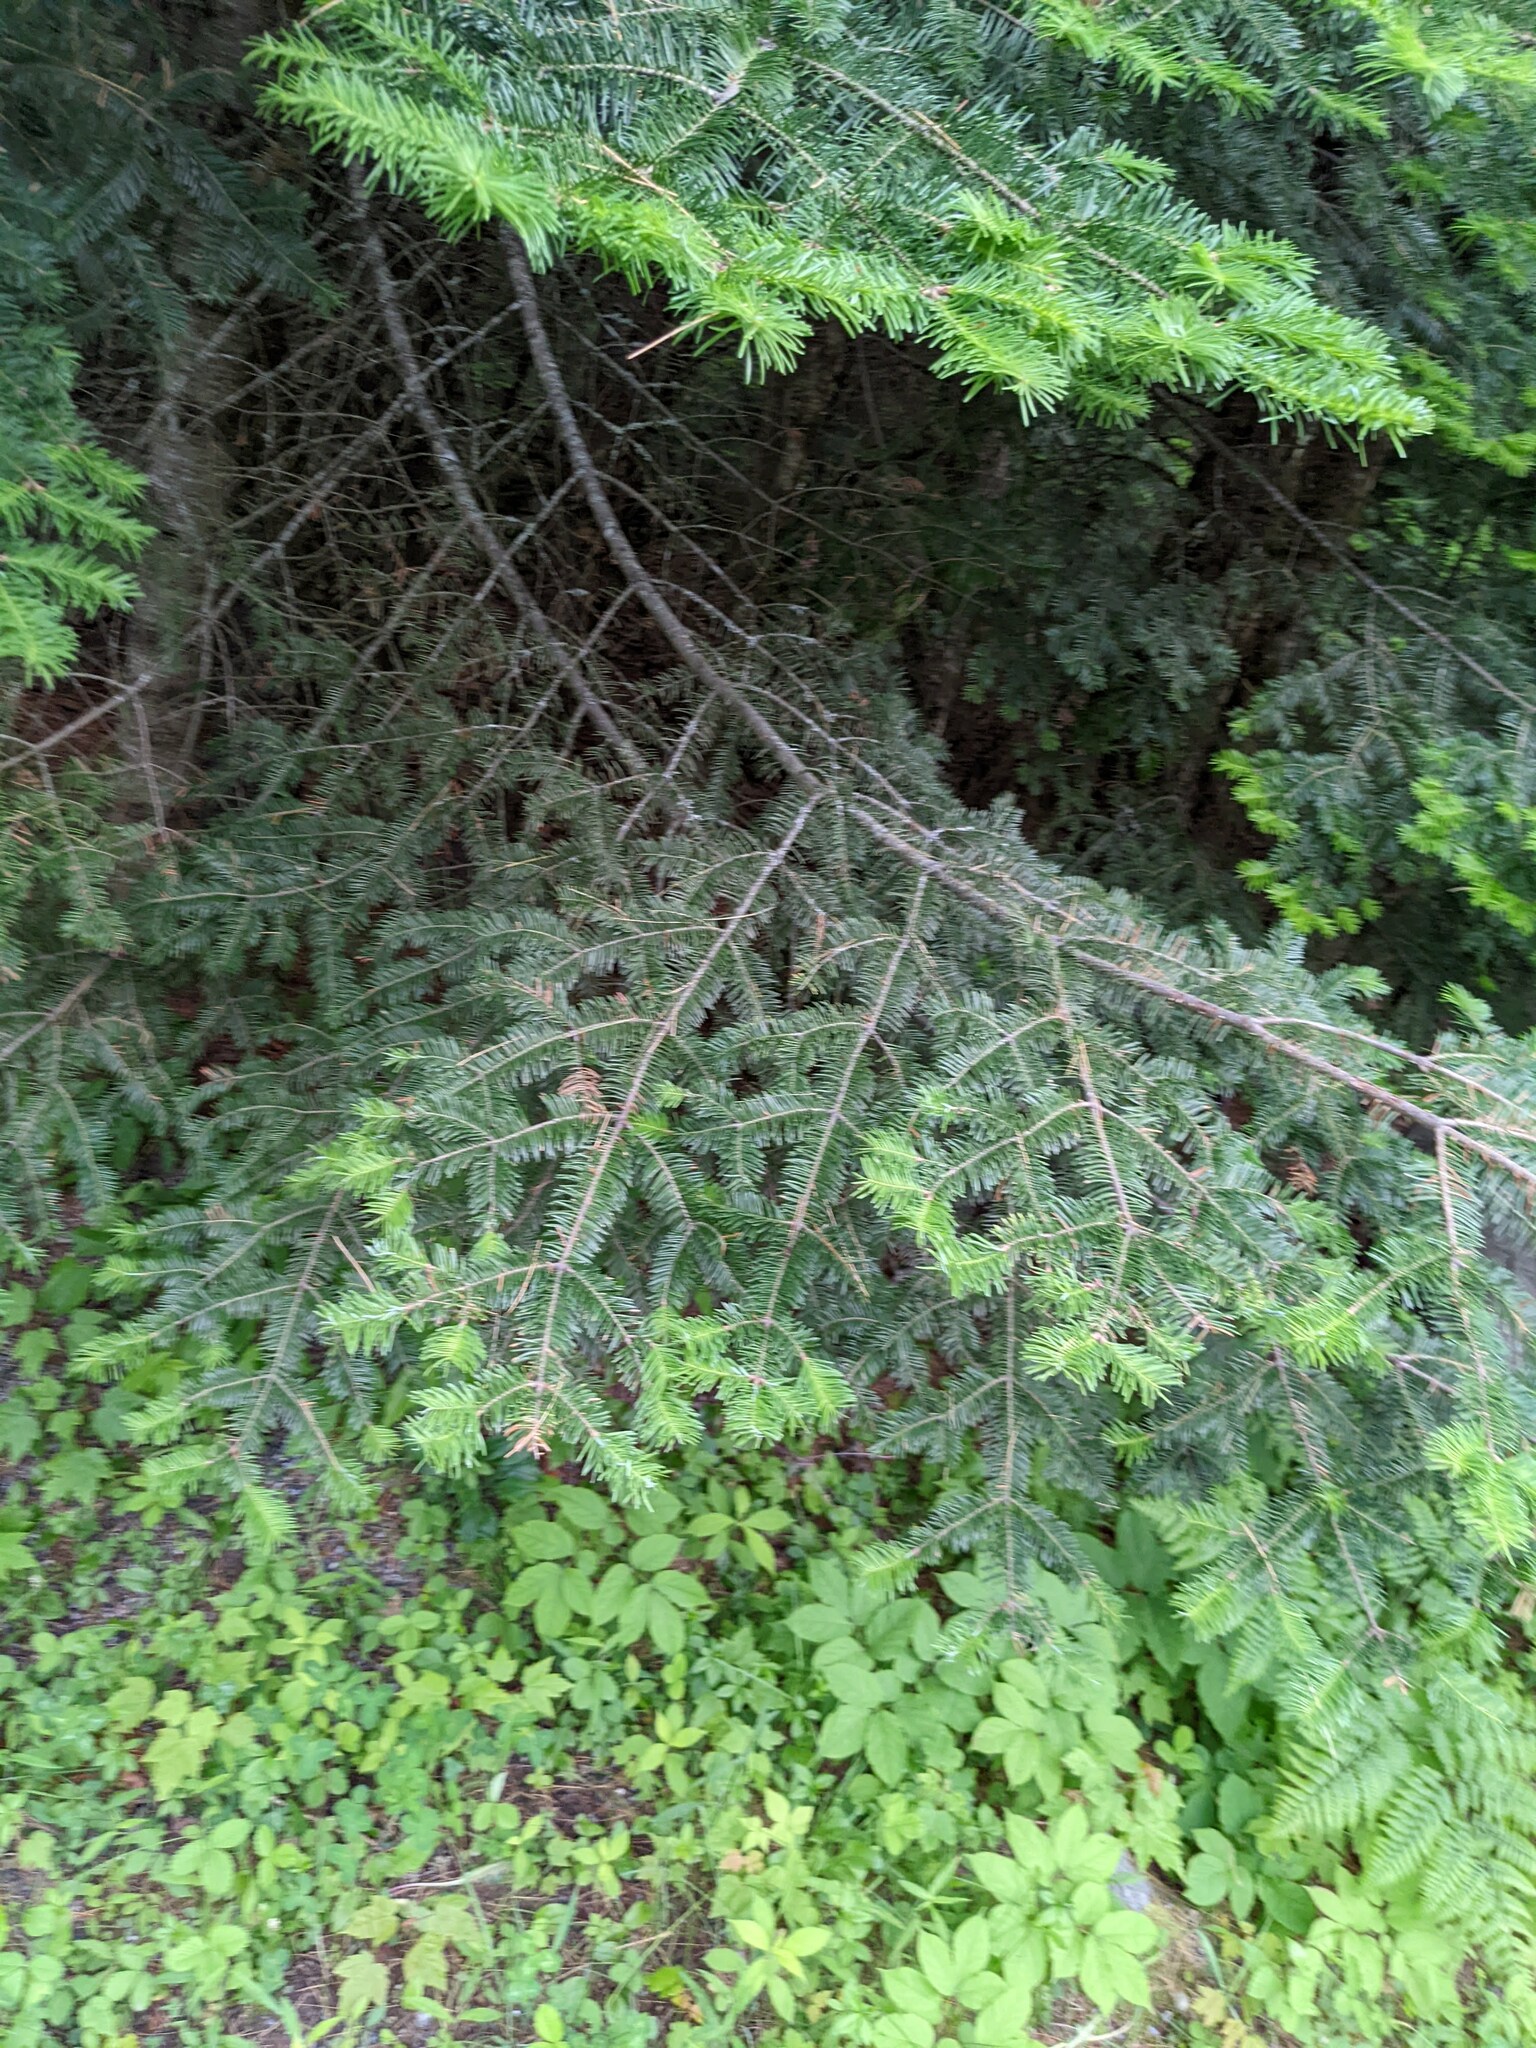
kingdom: Plantae
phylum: Tracheophyta
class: Pinopsida
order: Pinales
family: Pinaceae
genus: Abies
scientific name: Abies balsamea
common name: Balsam fir
